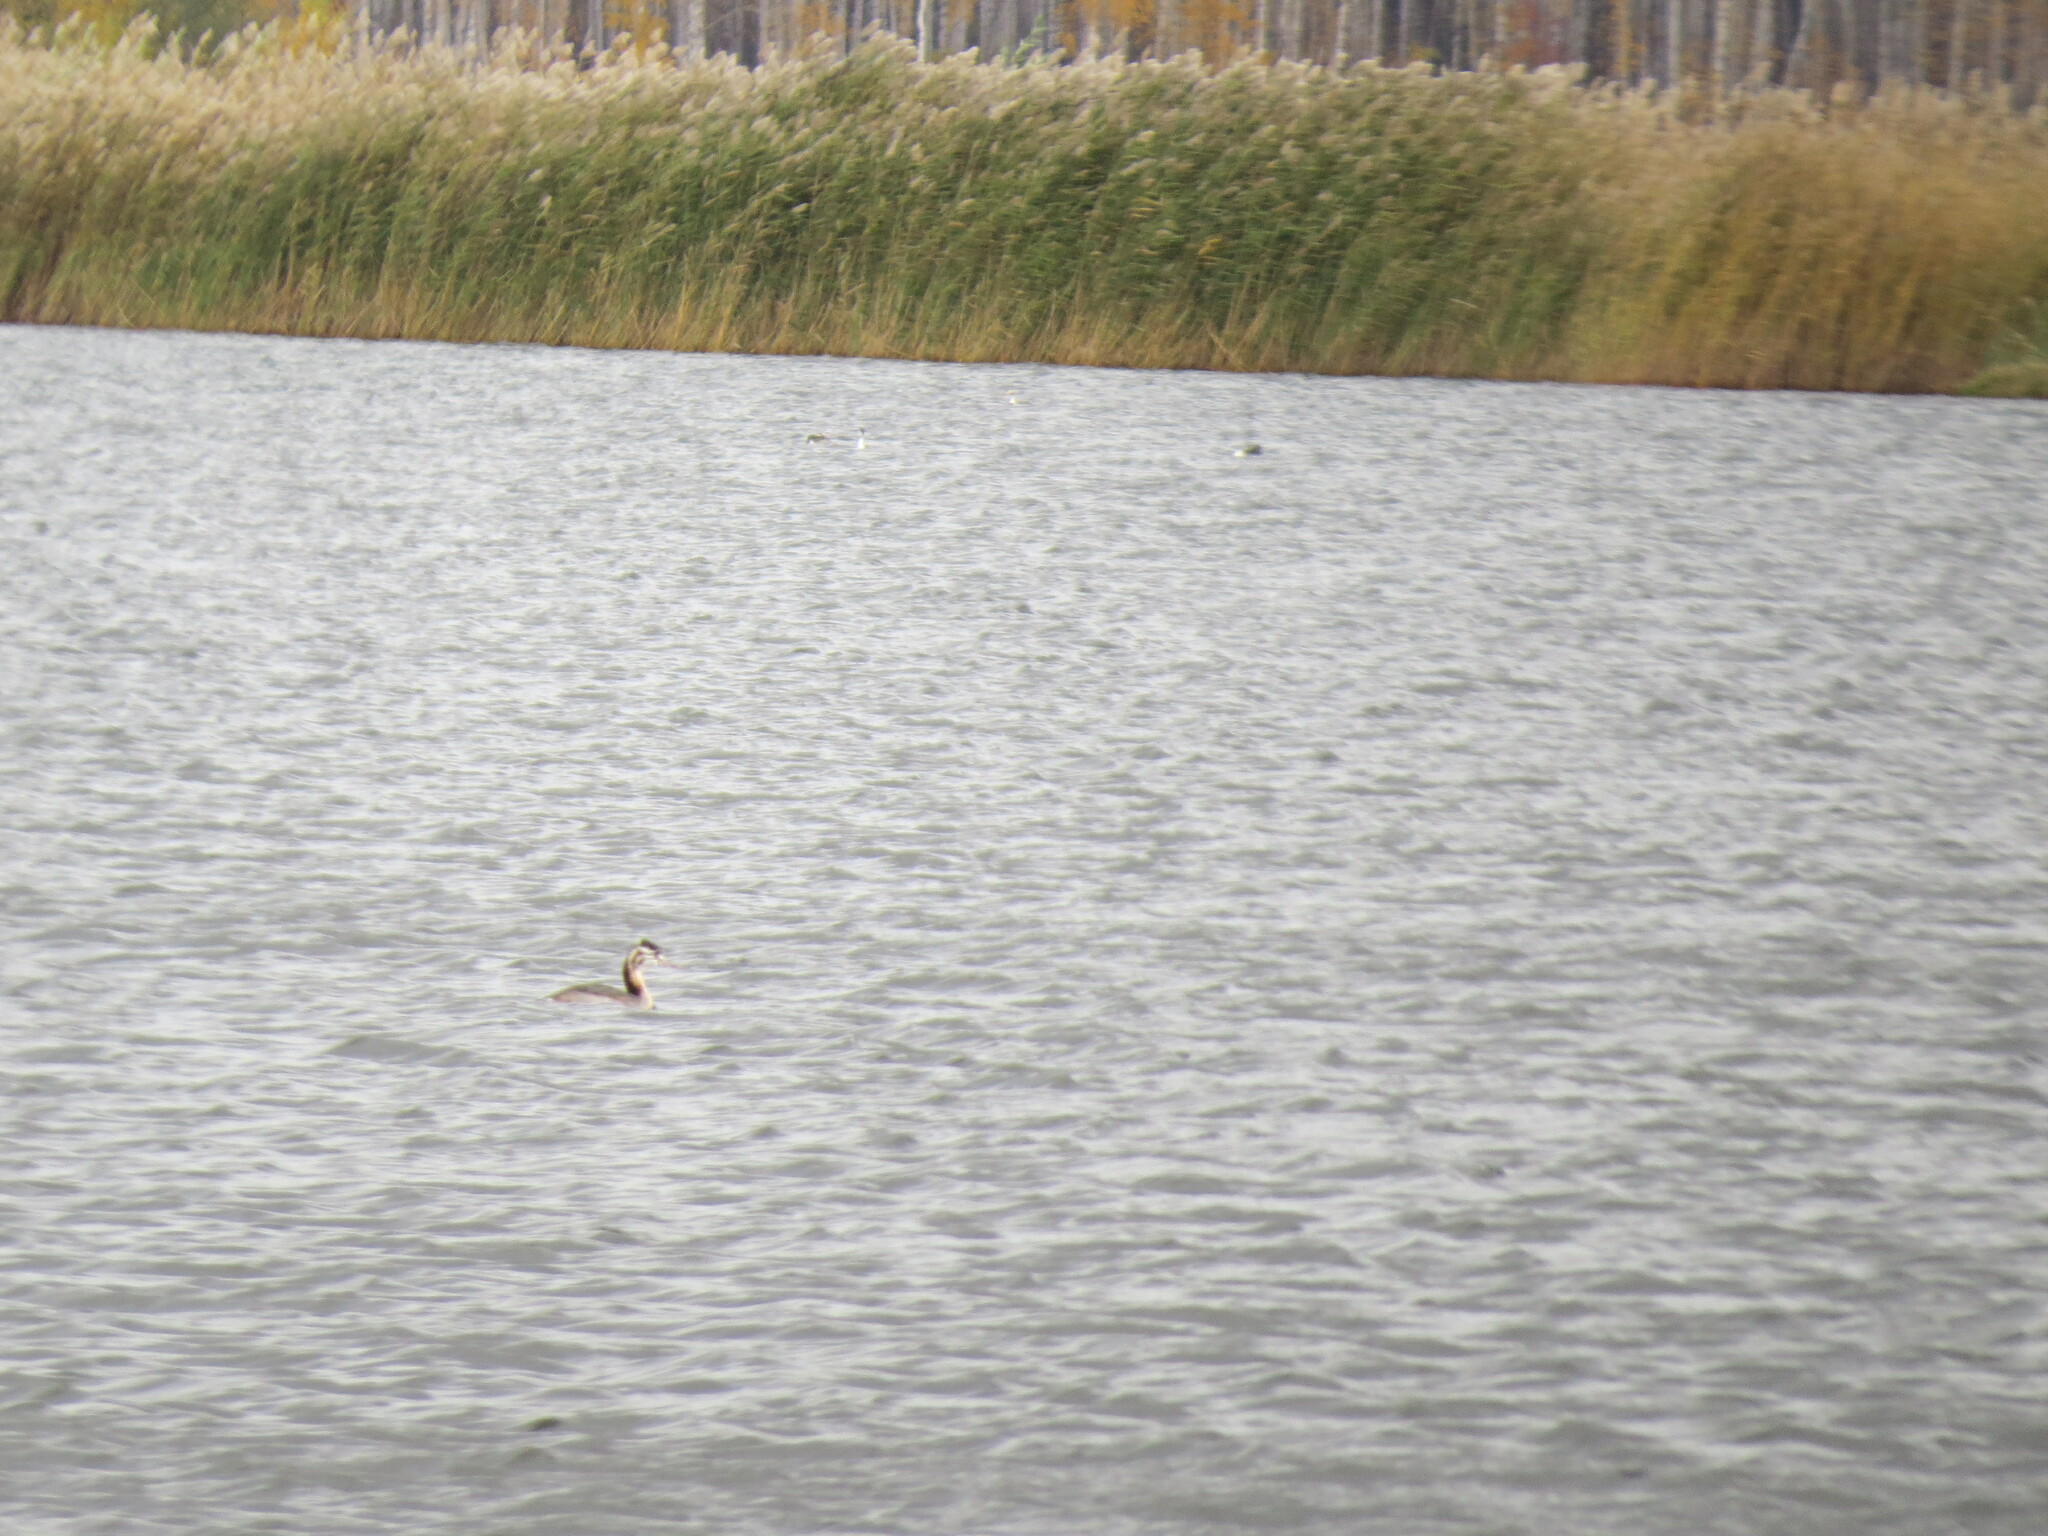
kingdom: Animalia
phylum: Chordata
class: Aves
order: Podicipediformes
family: Podicipedidae
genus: Podiceps
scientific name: Podiceps cristatus
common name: Great crested grebe
